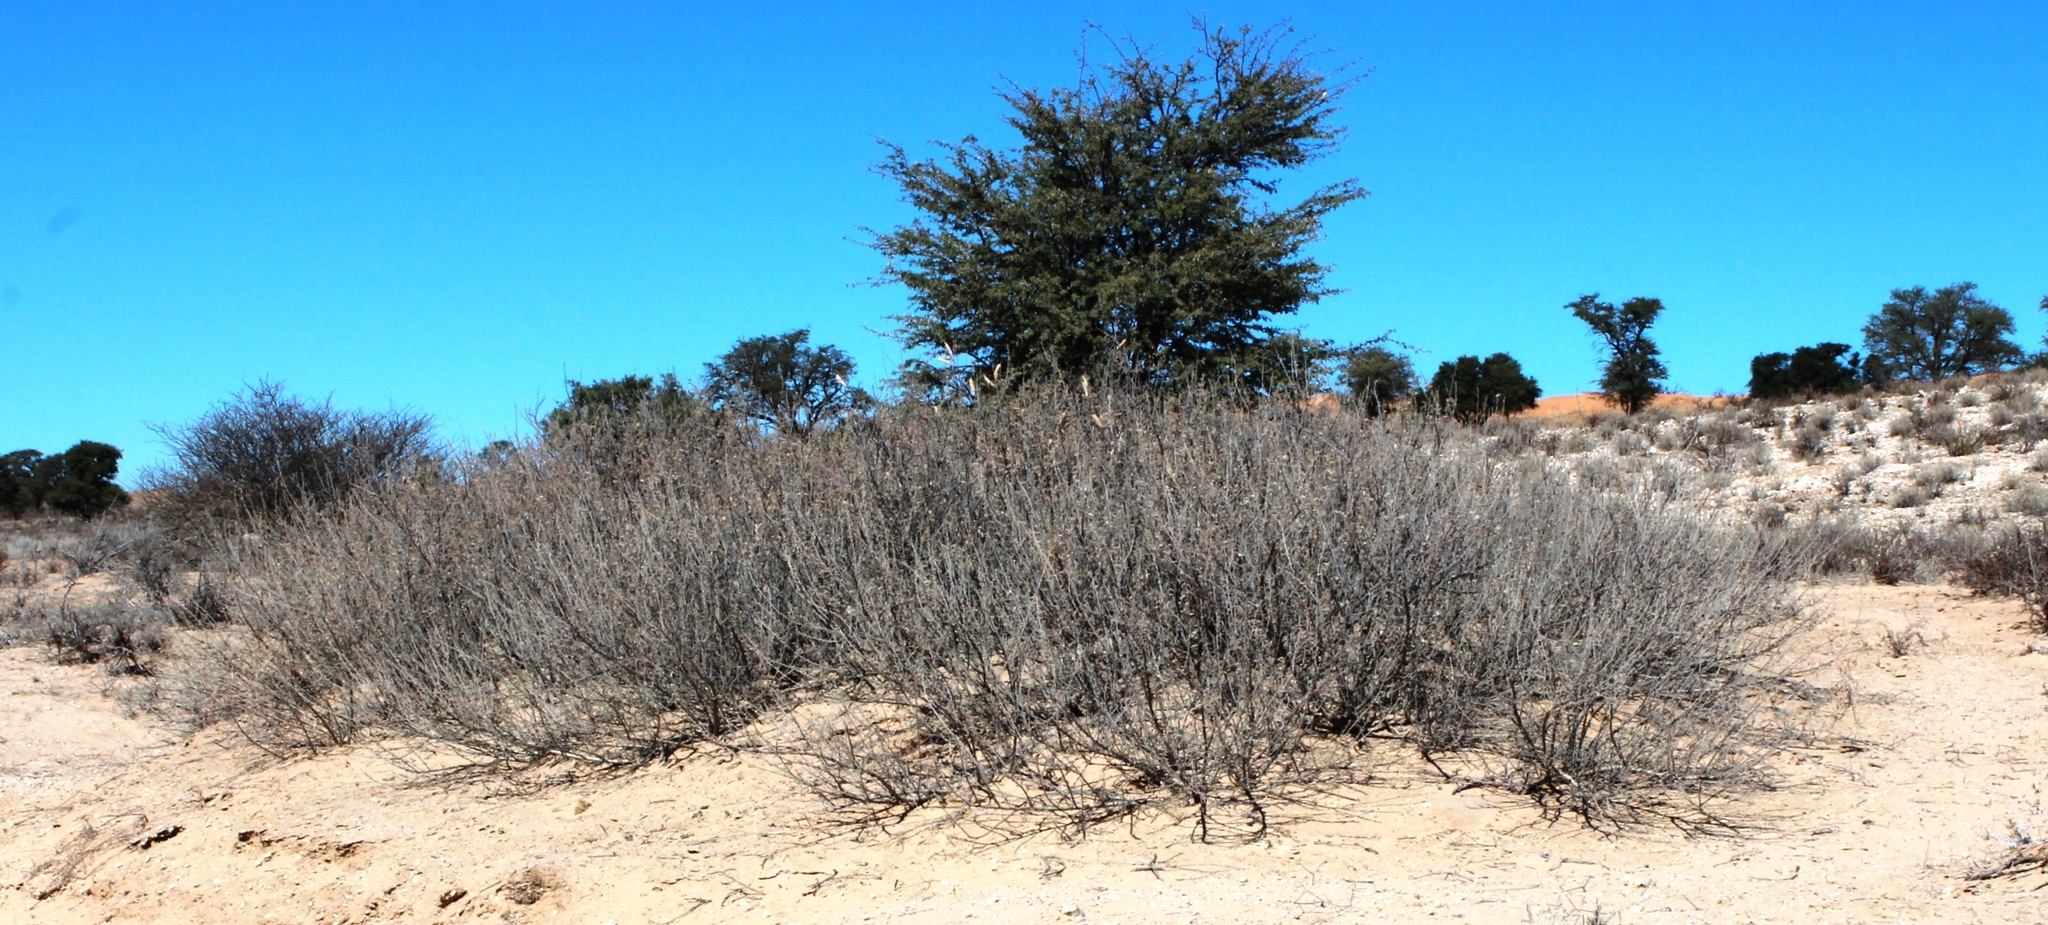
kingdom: Plantae
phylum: Tracheophyta
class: Magnoliopsida
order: Fabales
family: Fabaceae
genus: Vachellia
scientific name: Vachellia hebeclada
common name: Candle thorn
